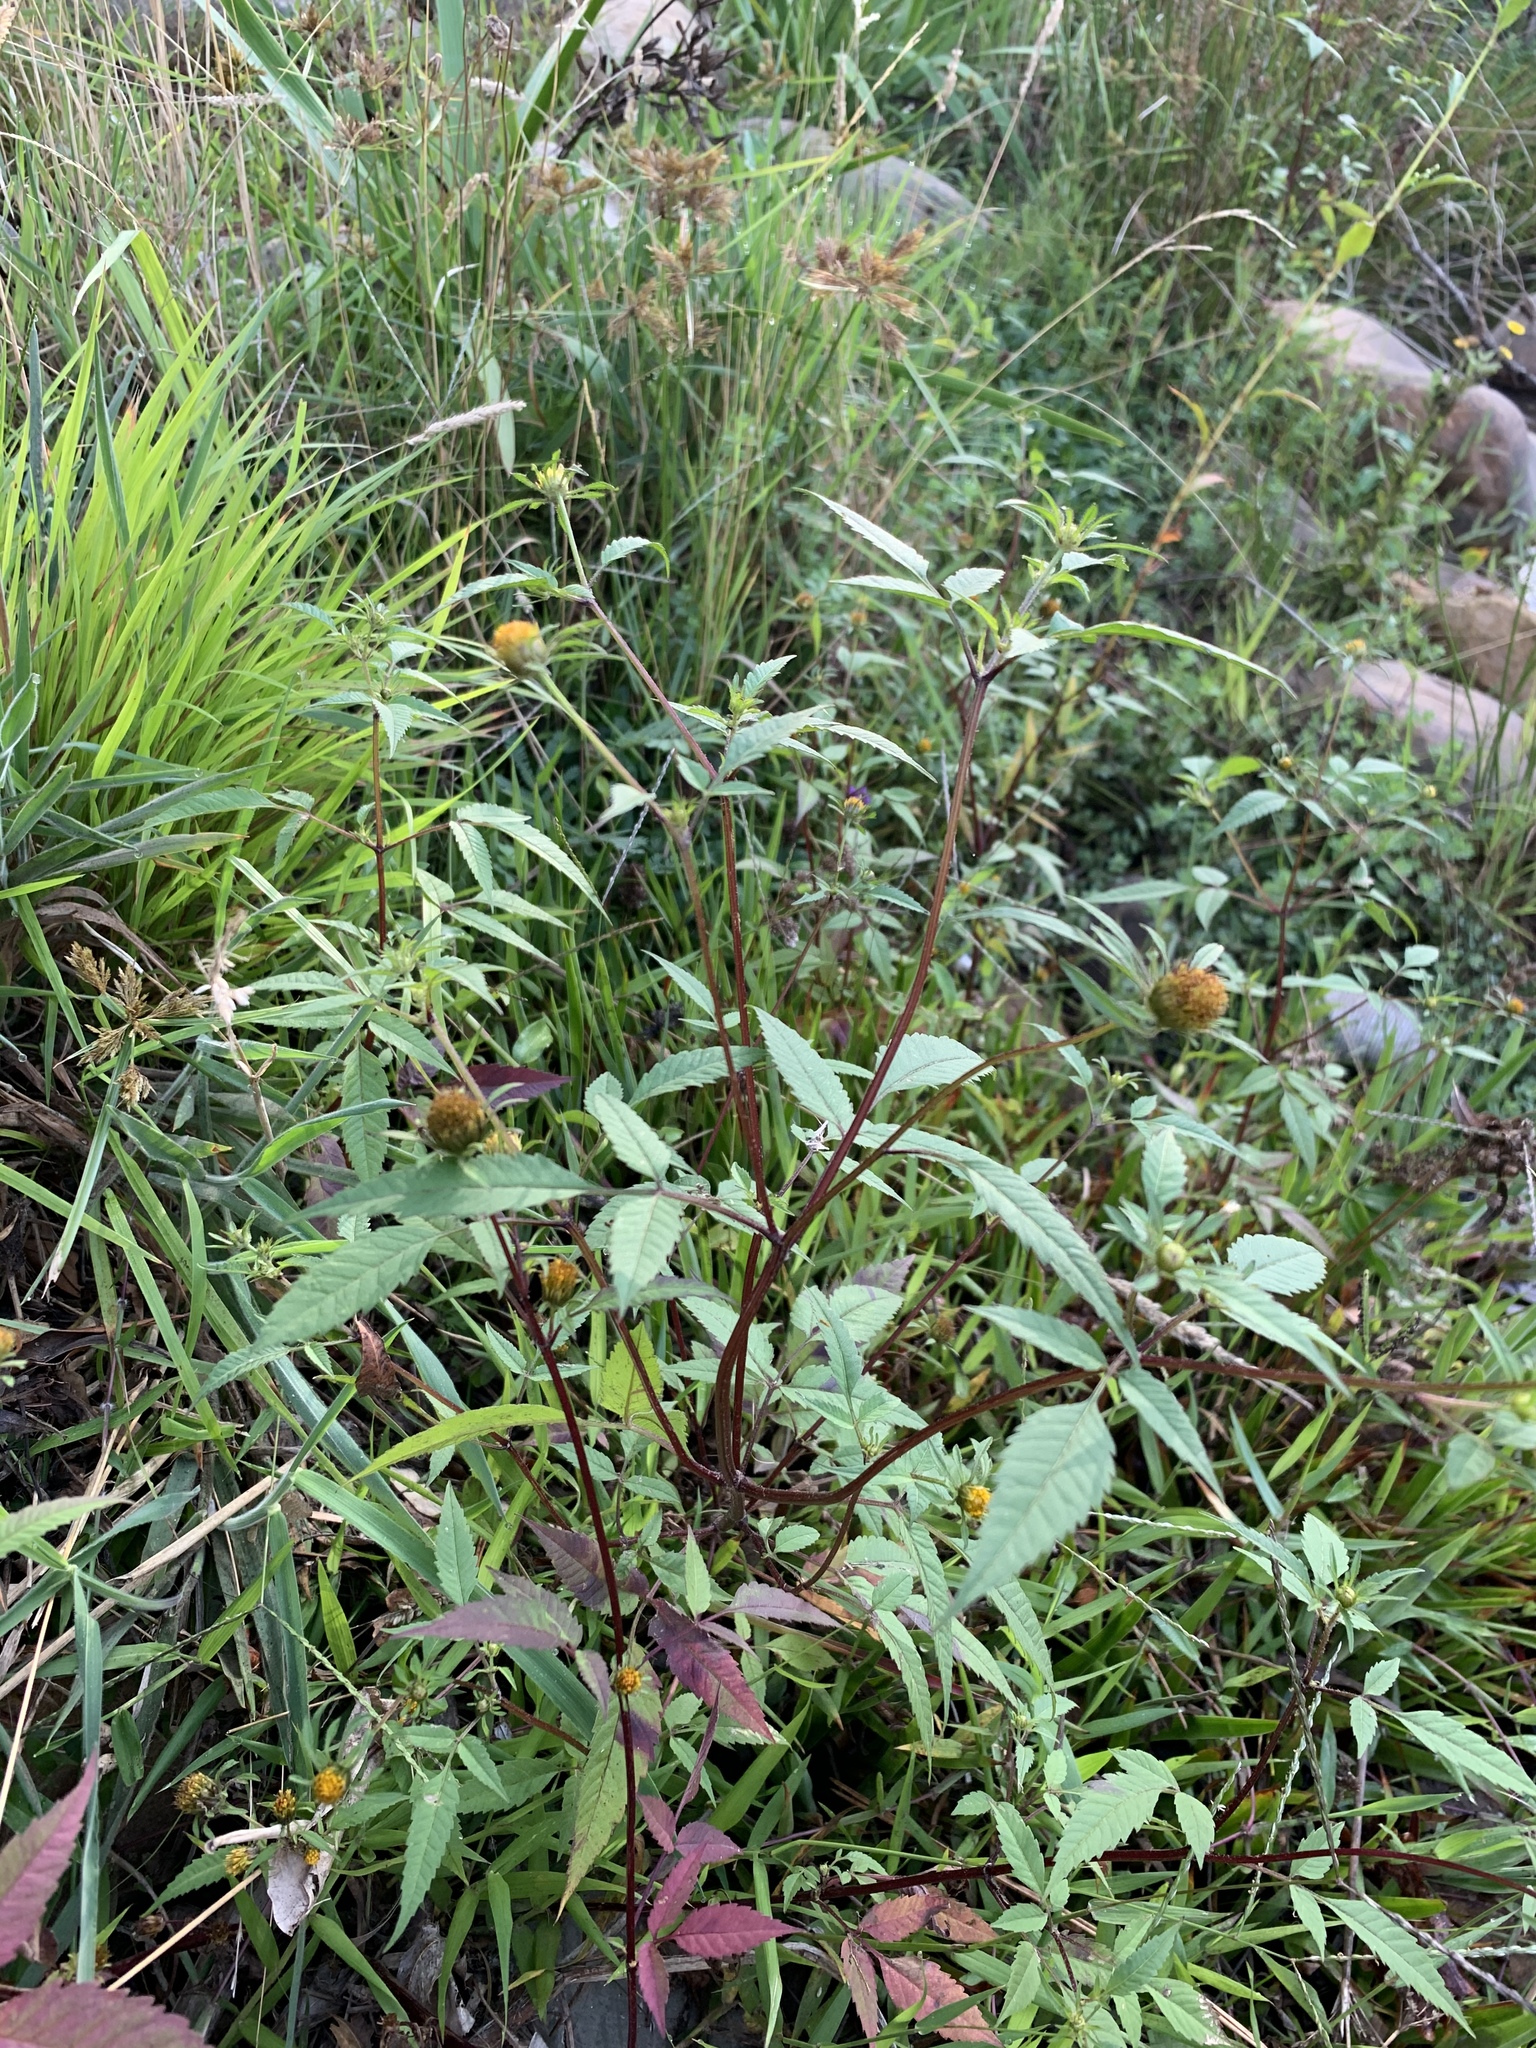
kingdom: Plantae
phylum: Tracheophyta
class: Magnoliopsida
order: Asterales
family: Asteraceae
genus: Bidens
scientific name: Bidens frondosa
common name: Beggarticks
